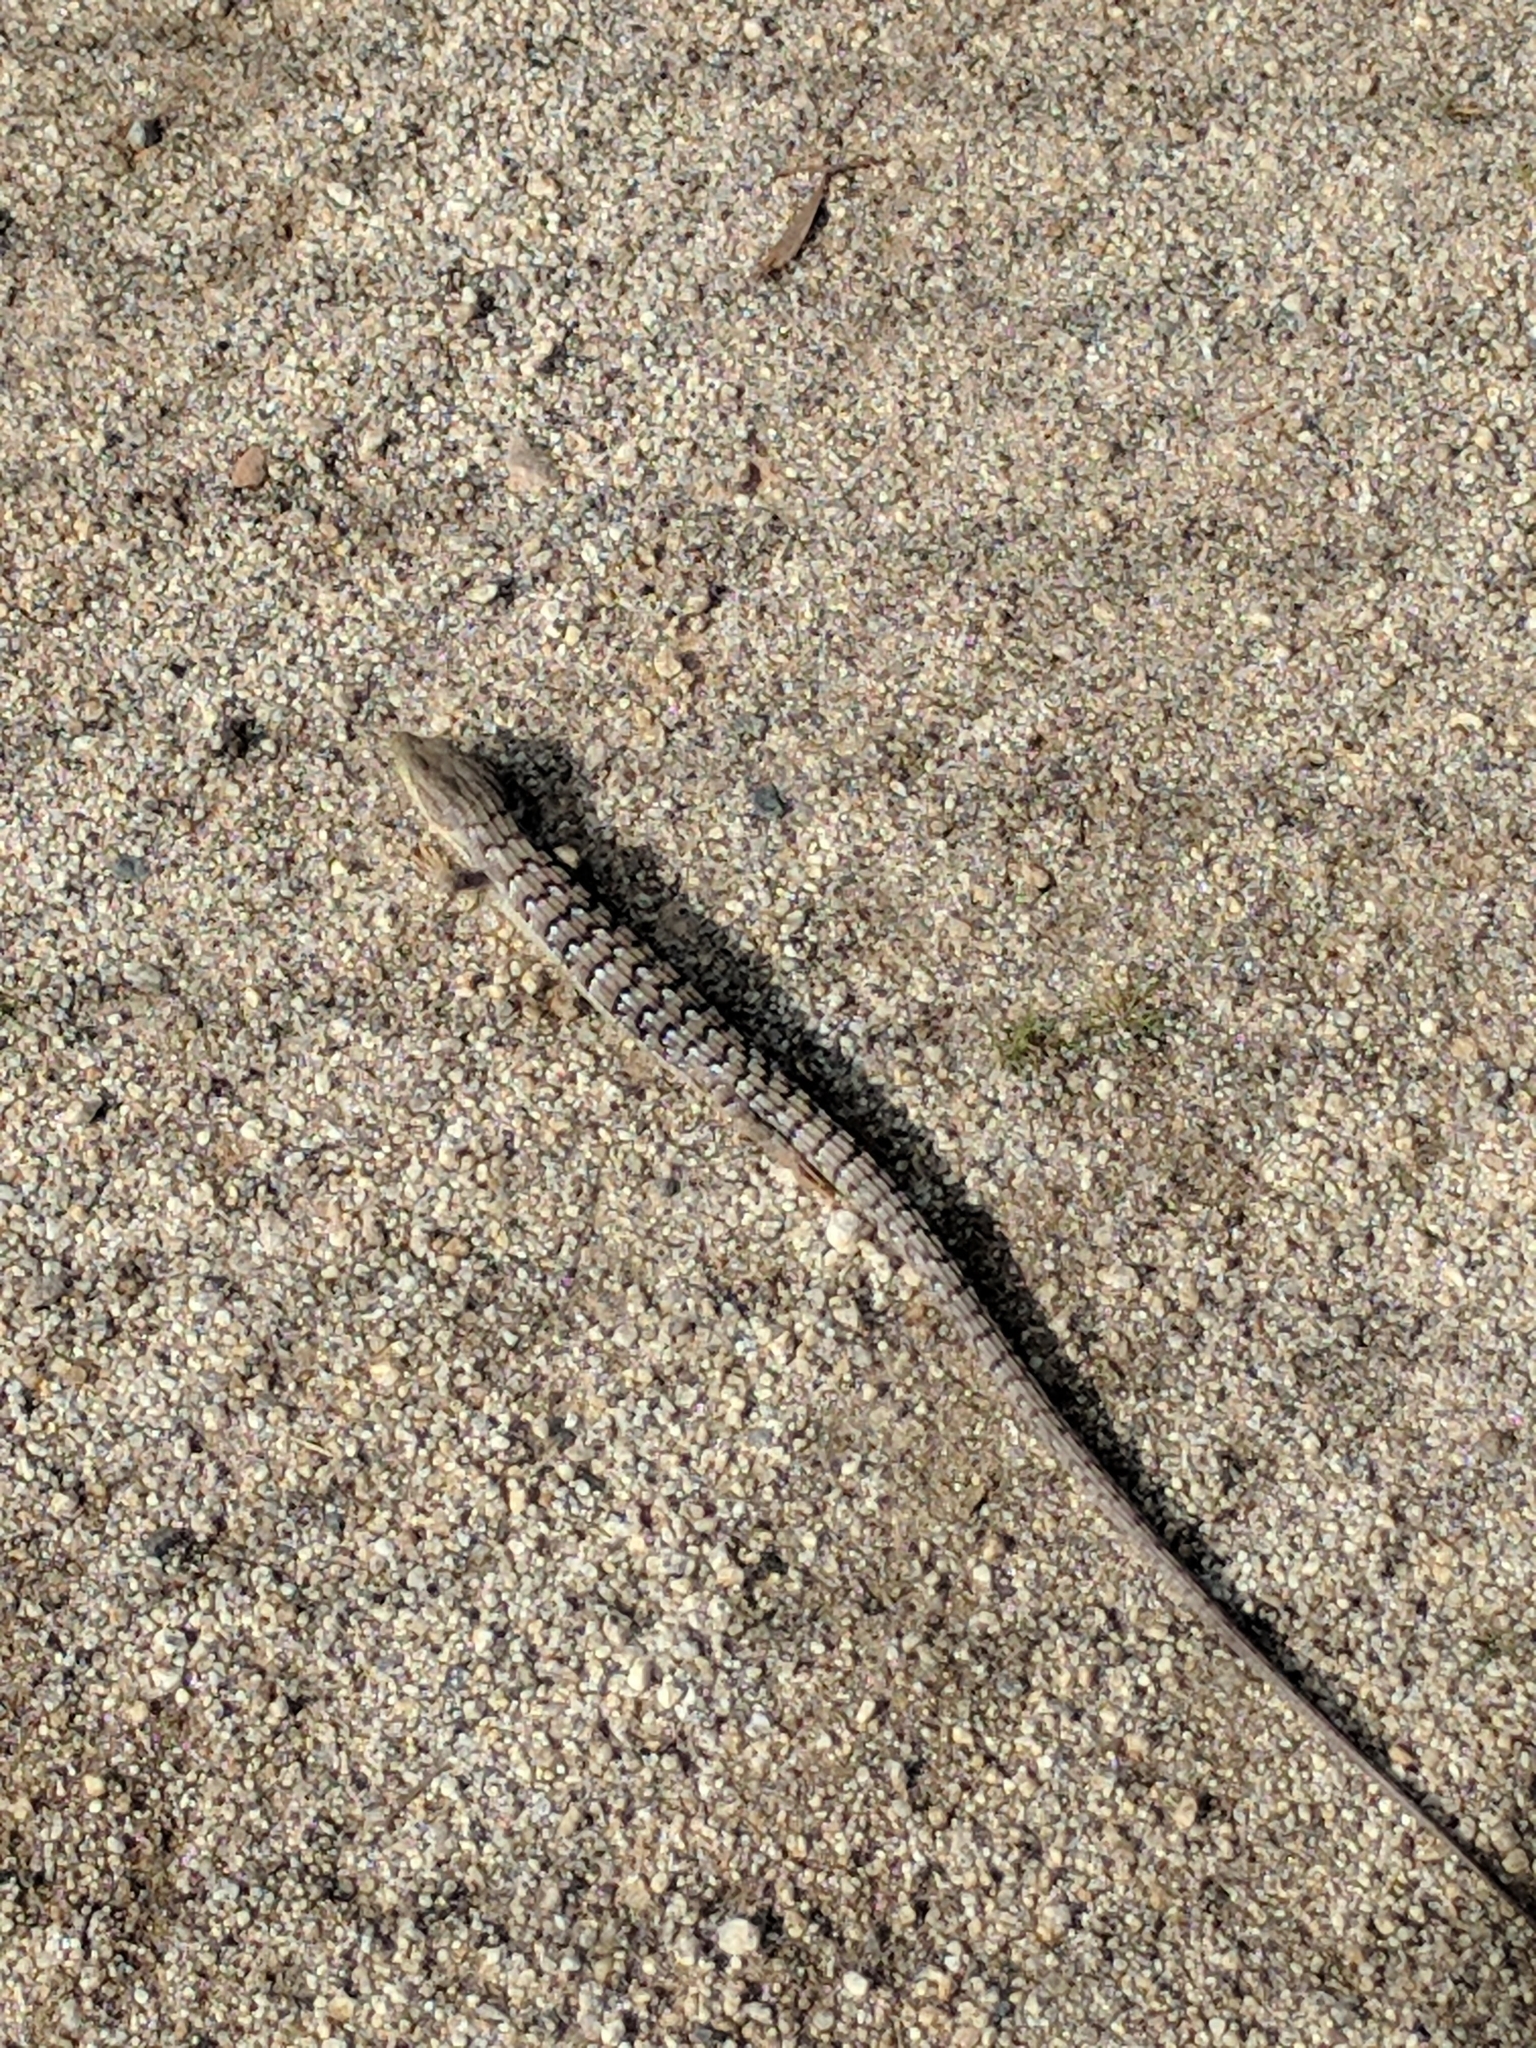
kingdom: Animalia
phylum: Chordata
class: Squamata
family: Anguidae
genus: Elgaria
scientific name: Elgaria multicarinata
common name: Southern alligator lizard
